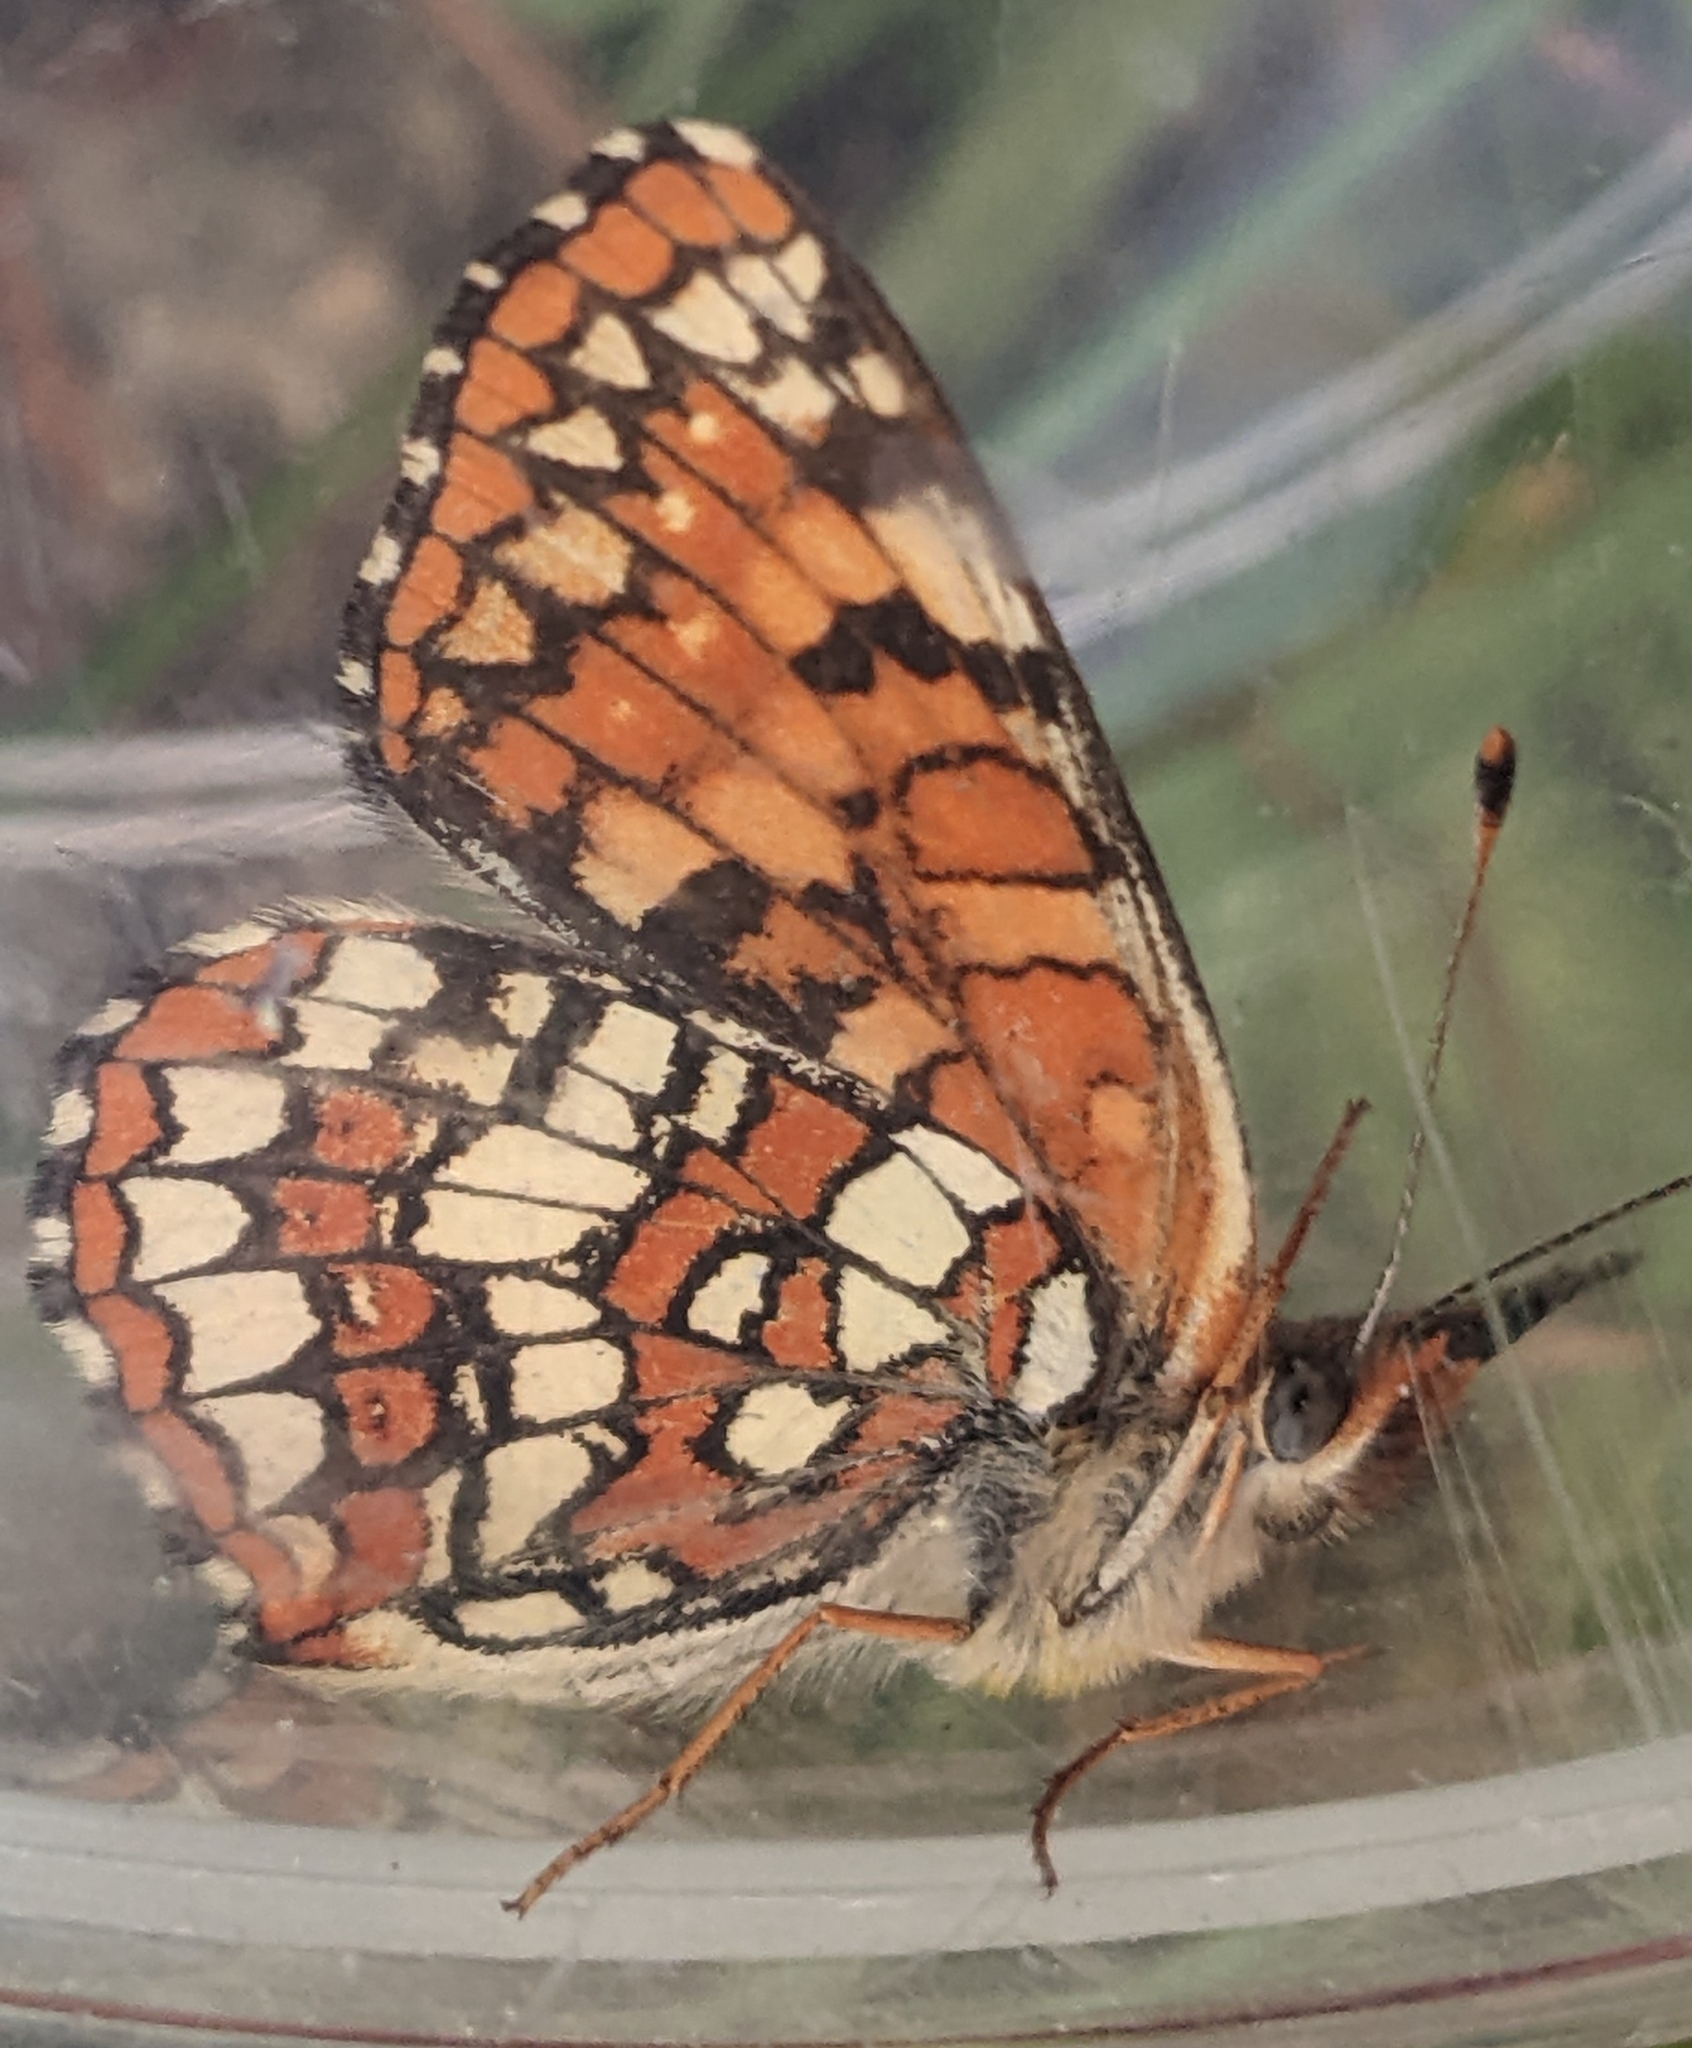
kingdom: Animalia
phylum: Arthropoda
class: Insecta
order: Lepidoptera
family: Nymphalidae
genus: Chlosyne
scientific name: Chlosyne palla
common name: Northern checkerspot
